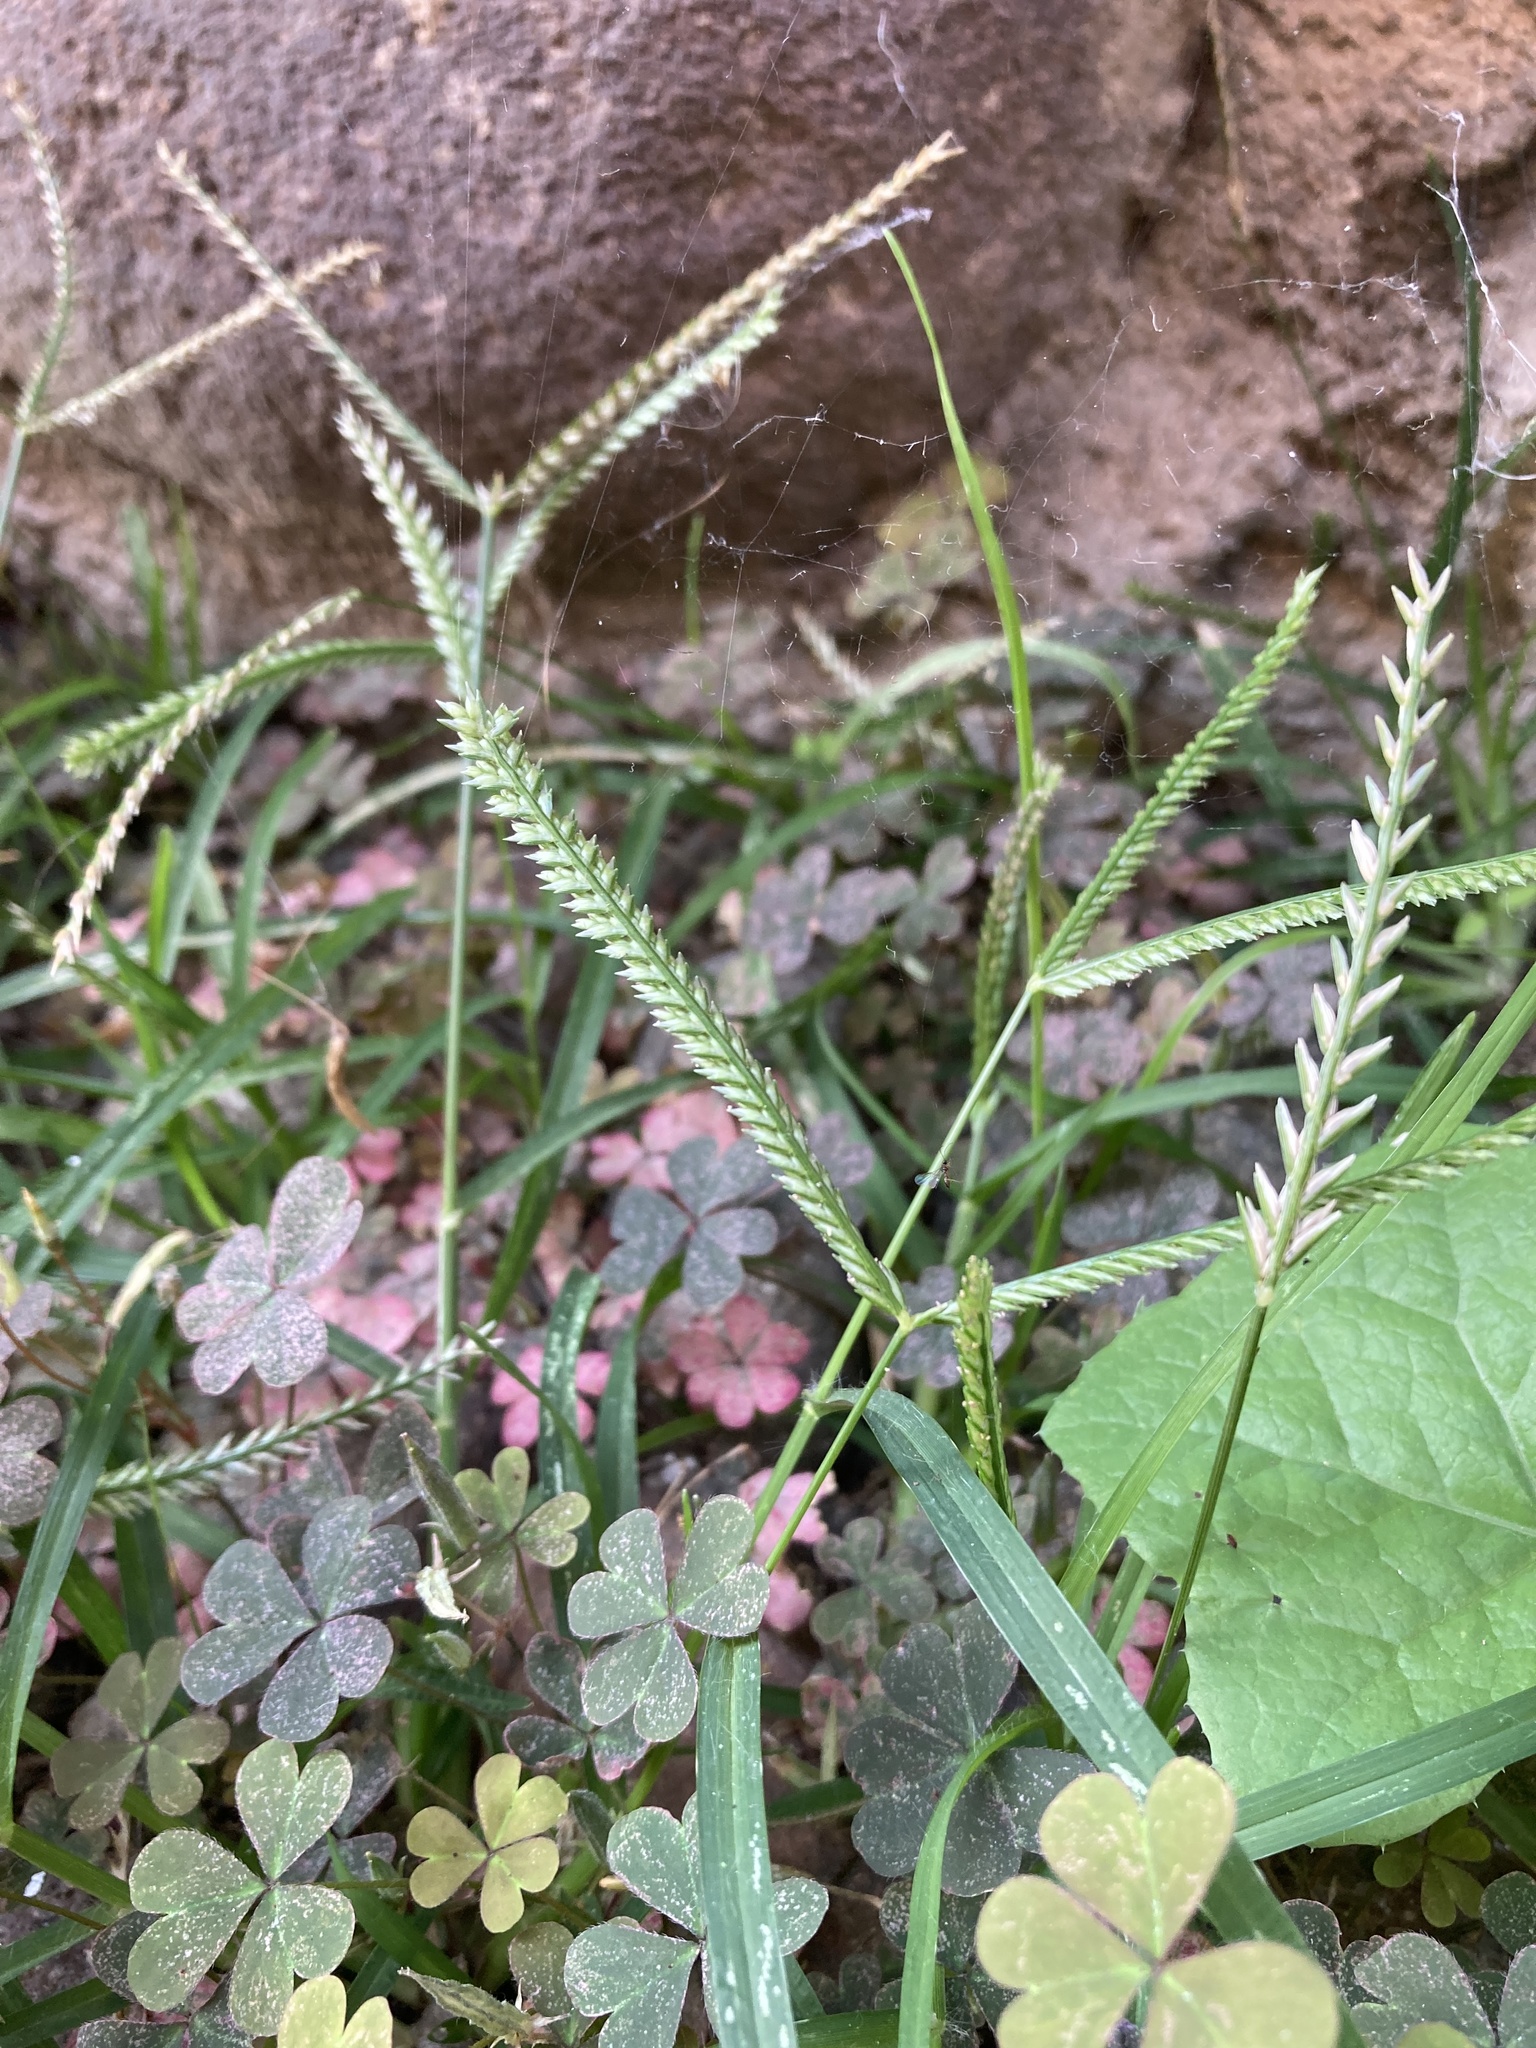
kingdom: Plantae
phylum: Tracheophyta
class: Liliopsida
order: Poales
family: Poaceae
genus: Eleusine
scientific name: Eleusine indica
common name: Yard-grass
